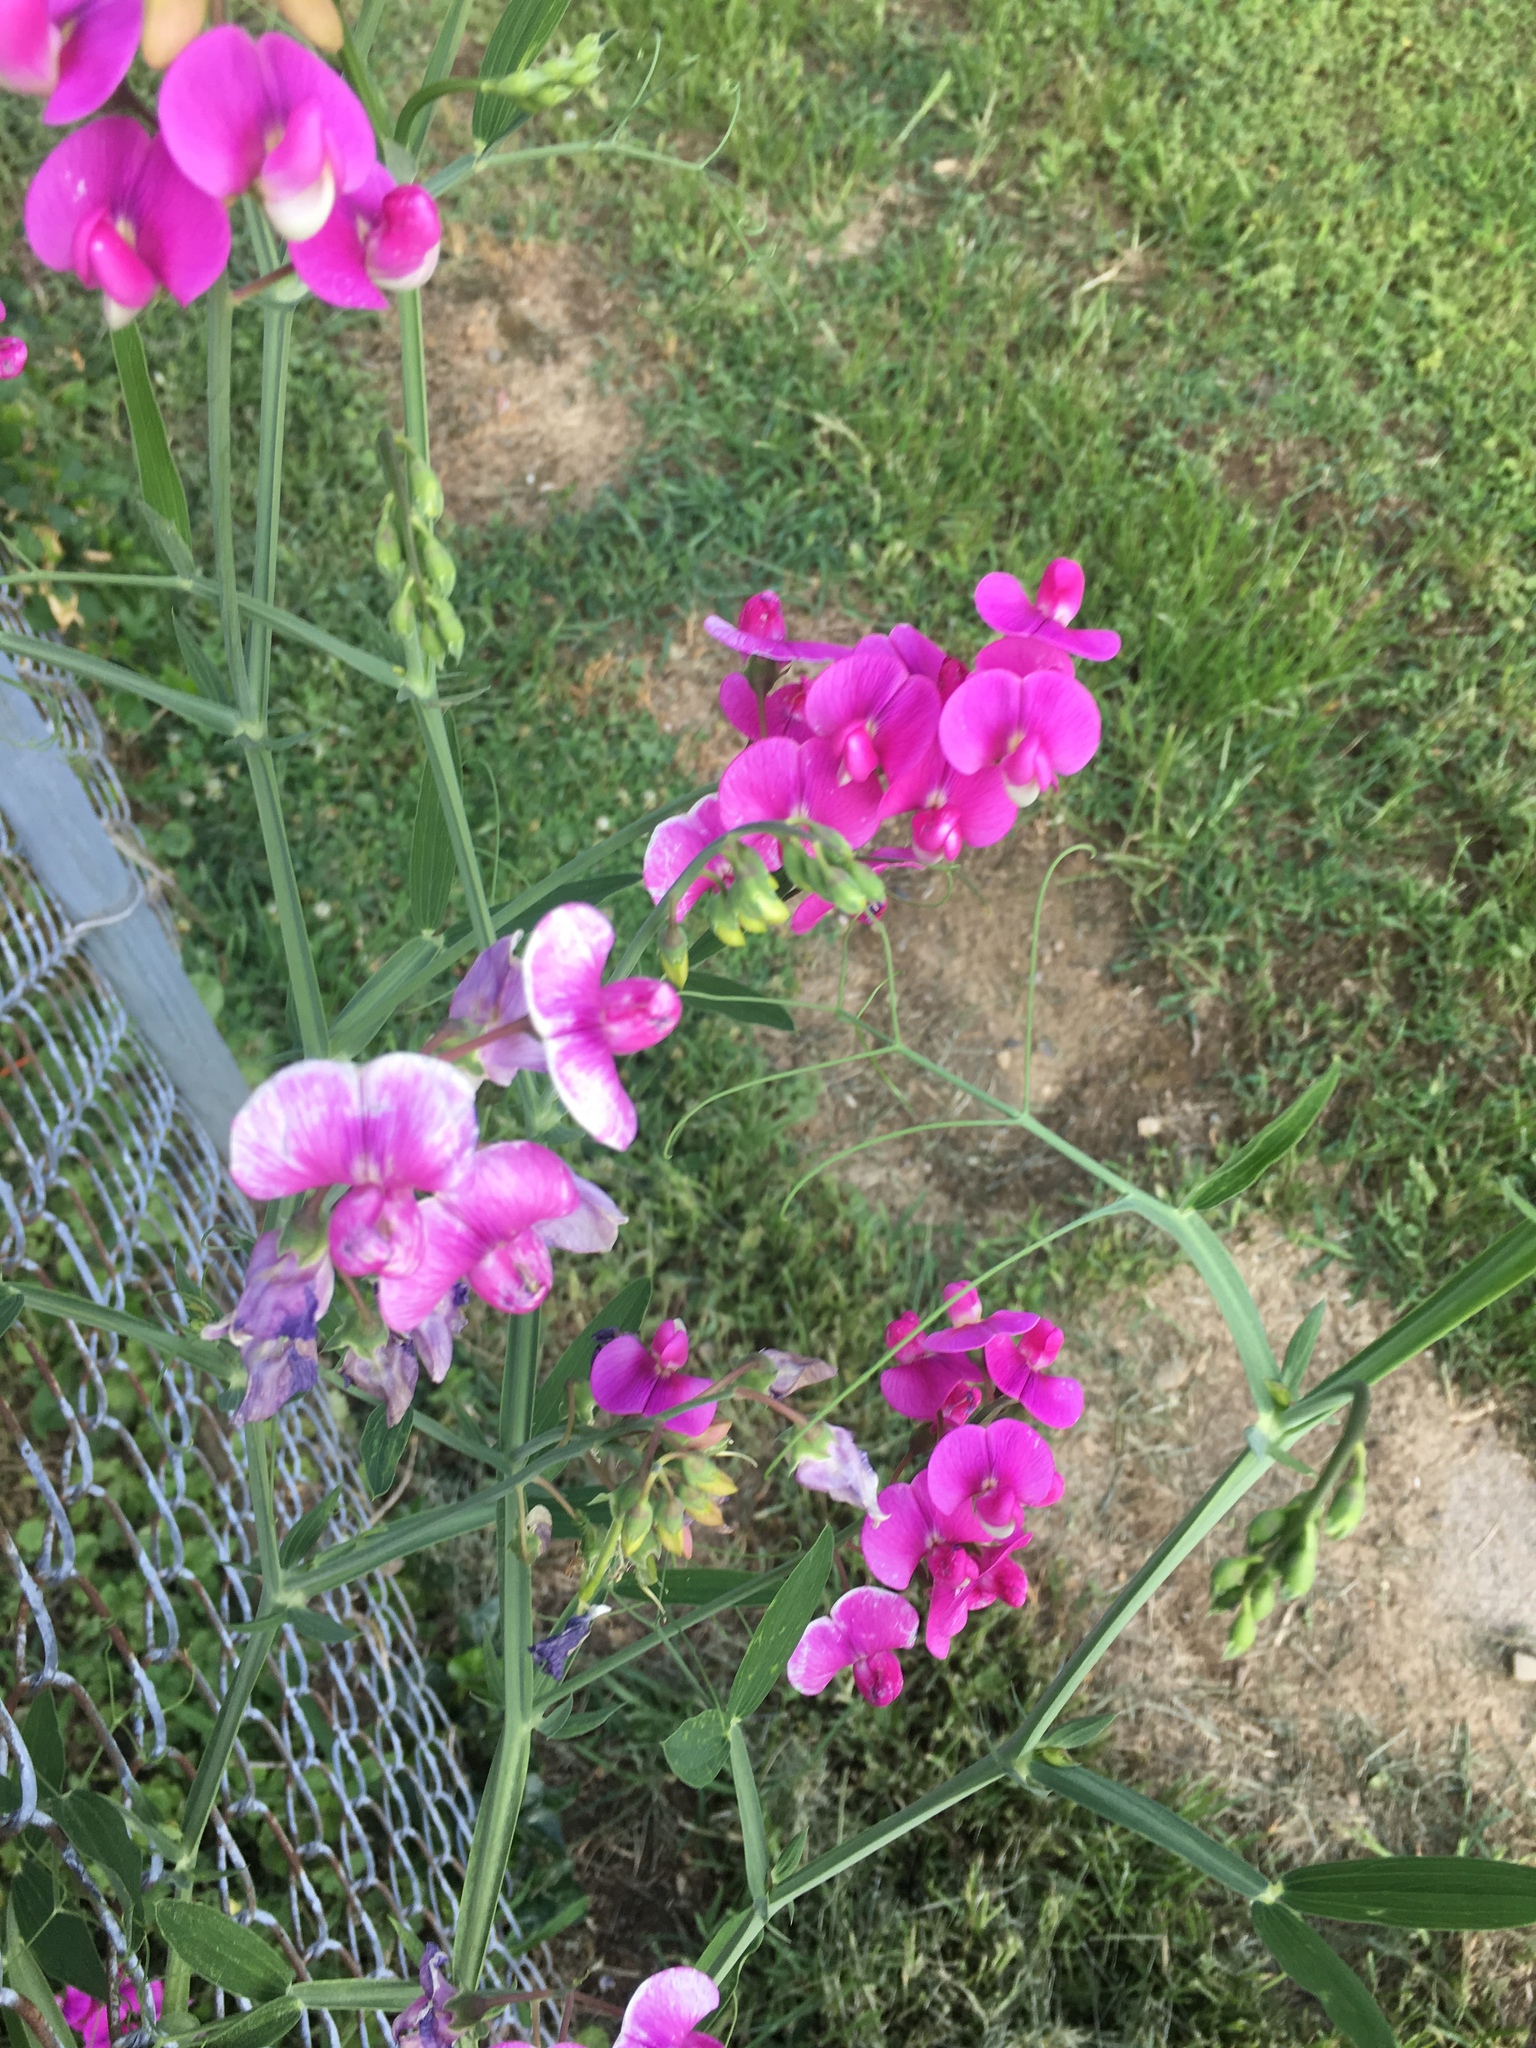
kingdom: Plantae
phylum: Tracheophyta
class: Magnoliopsida
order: Fabales
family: Fabaceae
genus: Lathyrus
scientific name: Lathyrus latifolius
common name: Perennial pea
